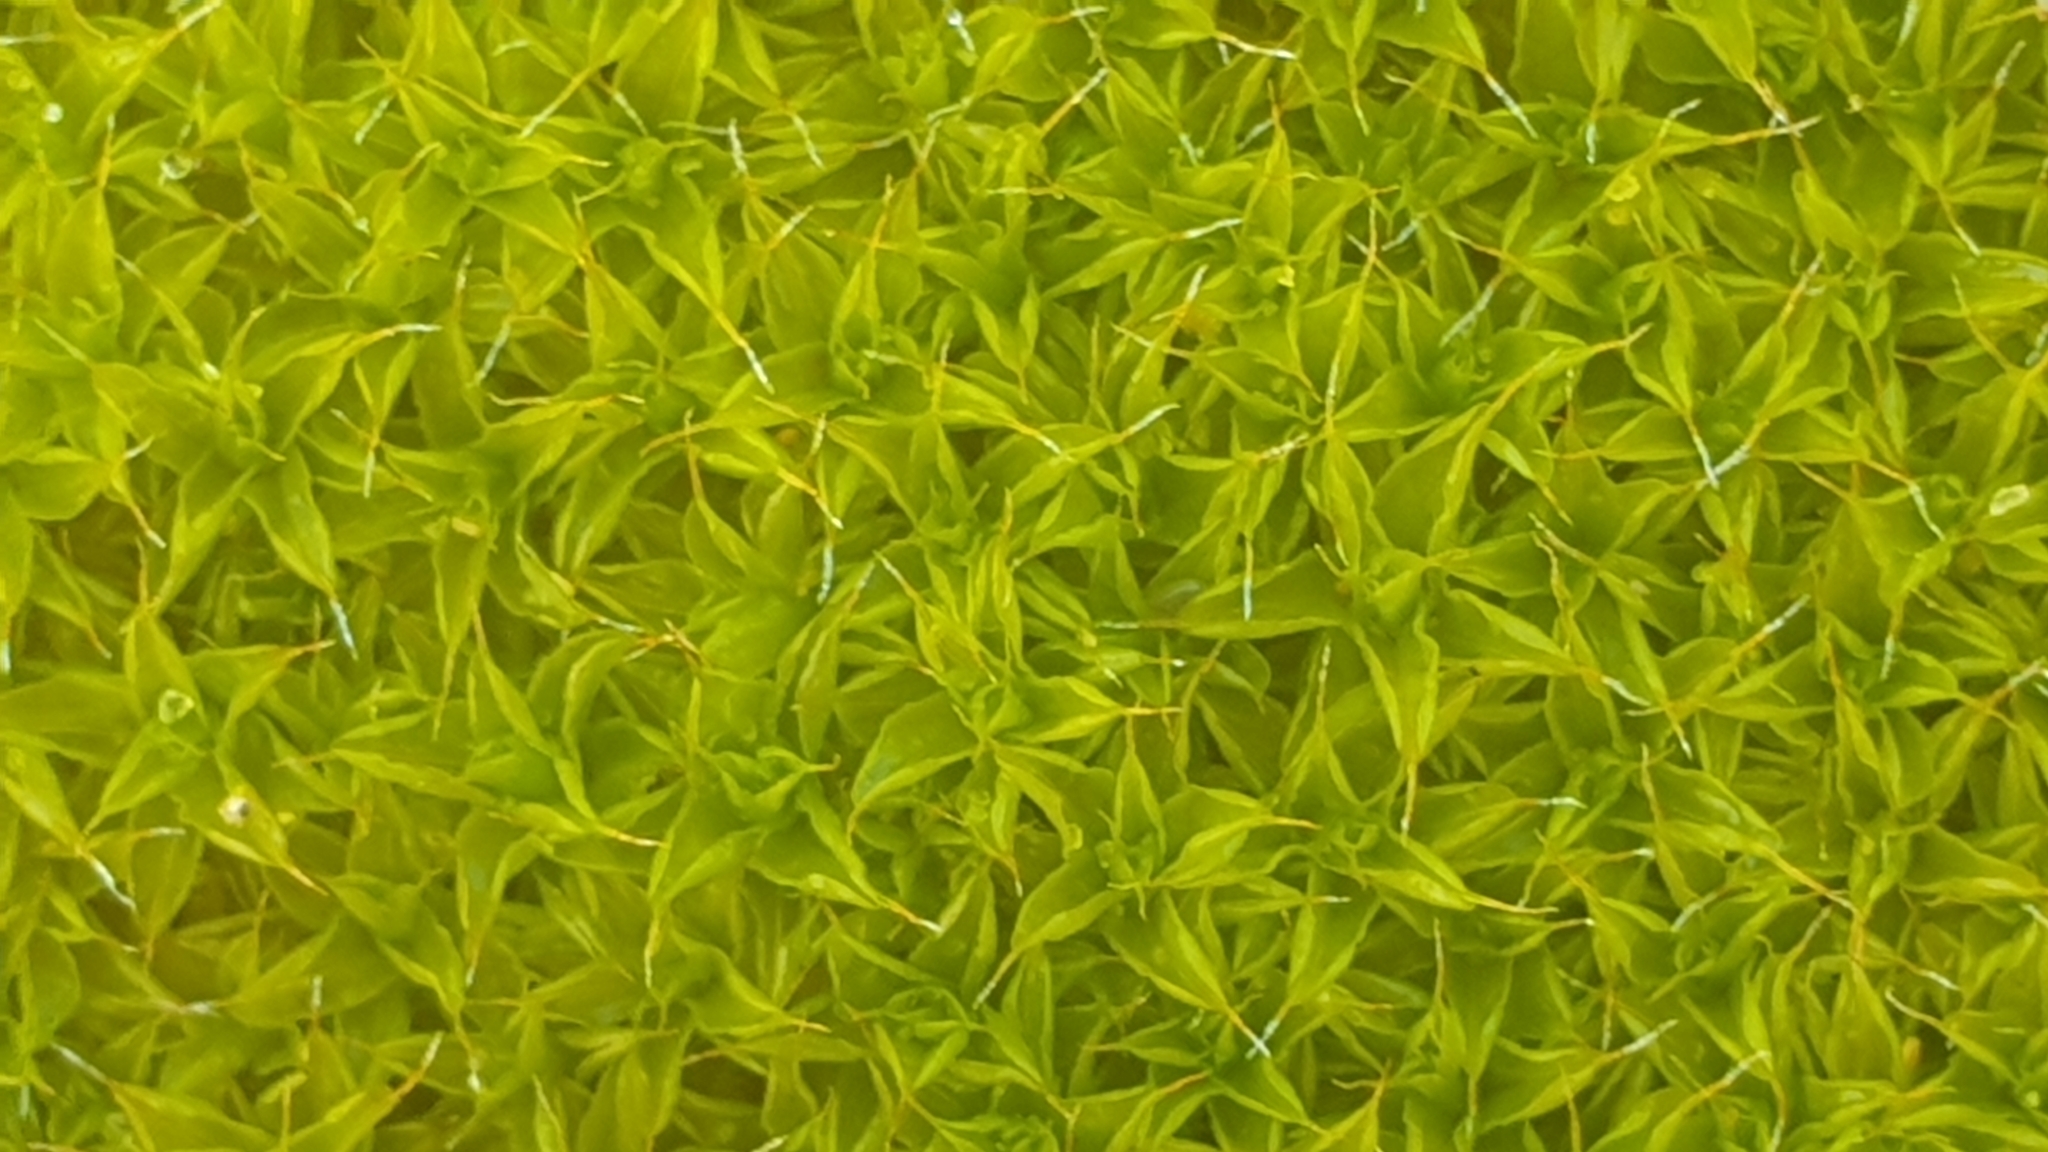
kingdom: Plantae
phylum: Bryophyta
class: Bryopsida
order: Pottiales
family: Pottiaceae
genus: Syntrichia
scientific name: Syntrichia ruralis
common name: Sidewalk screw moss
